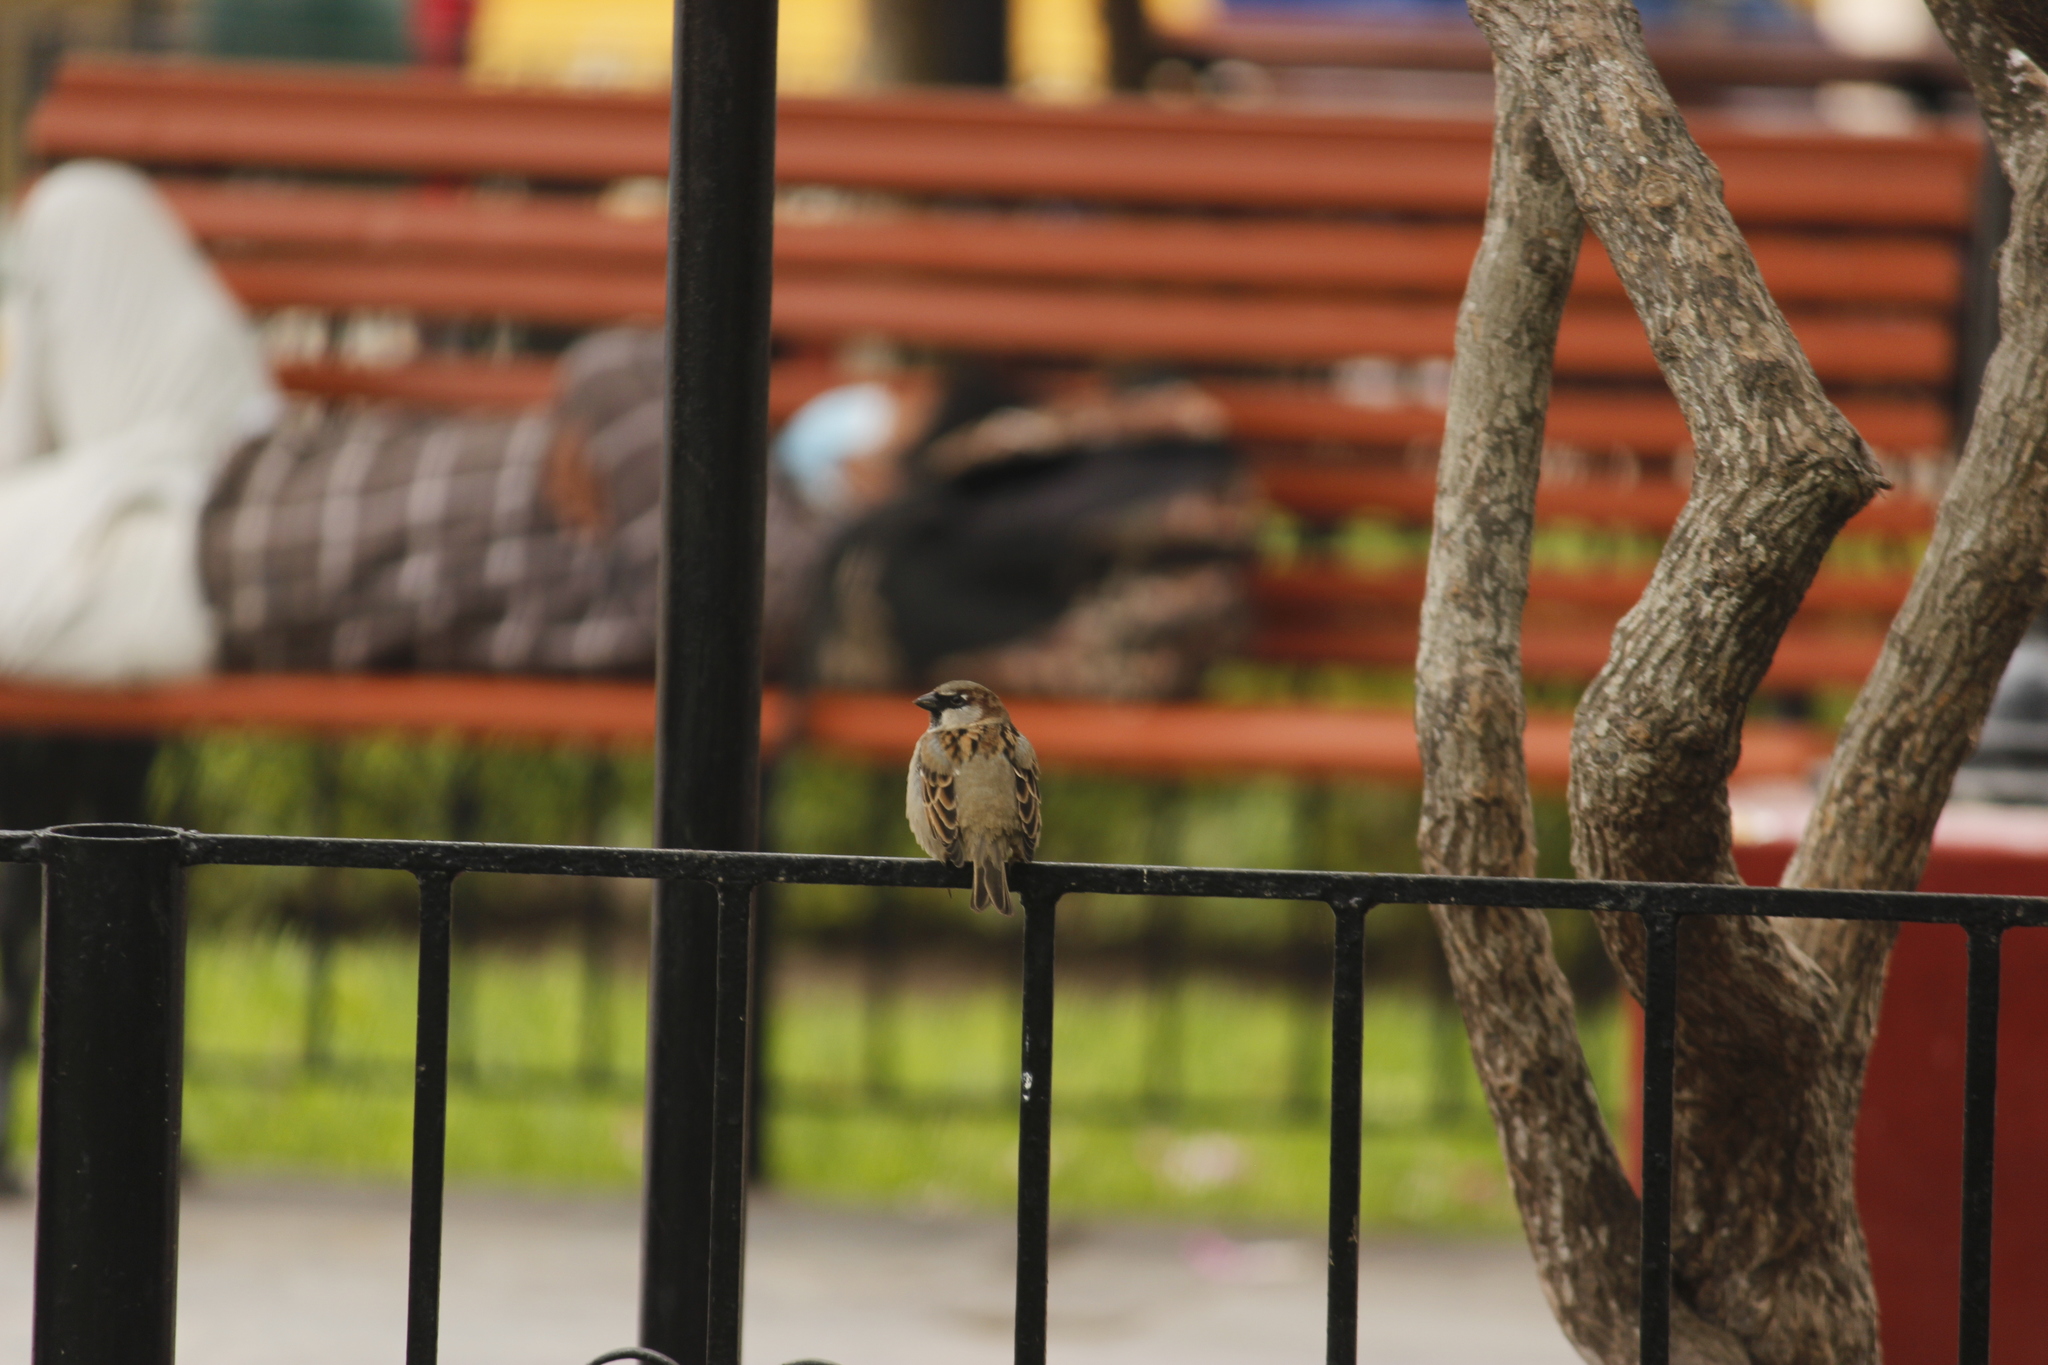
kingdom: Animalia
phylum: Chordata
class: Aves
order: Passeriformes
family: Passeridae
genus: Passer
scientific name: Passer domesticus
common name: House sparrow
